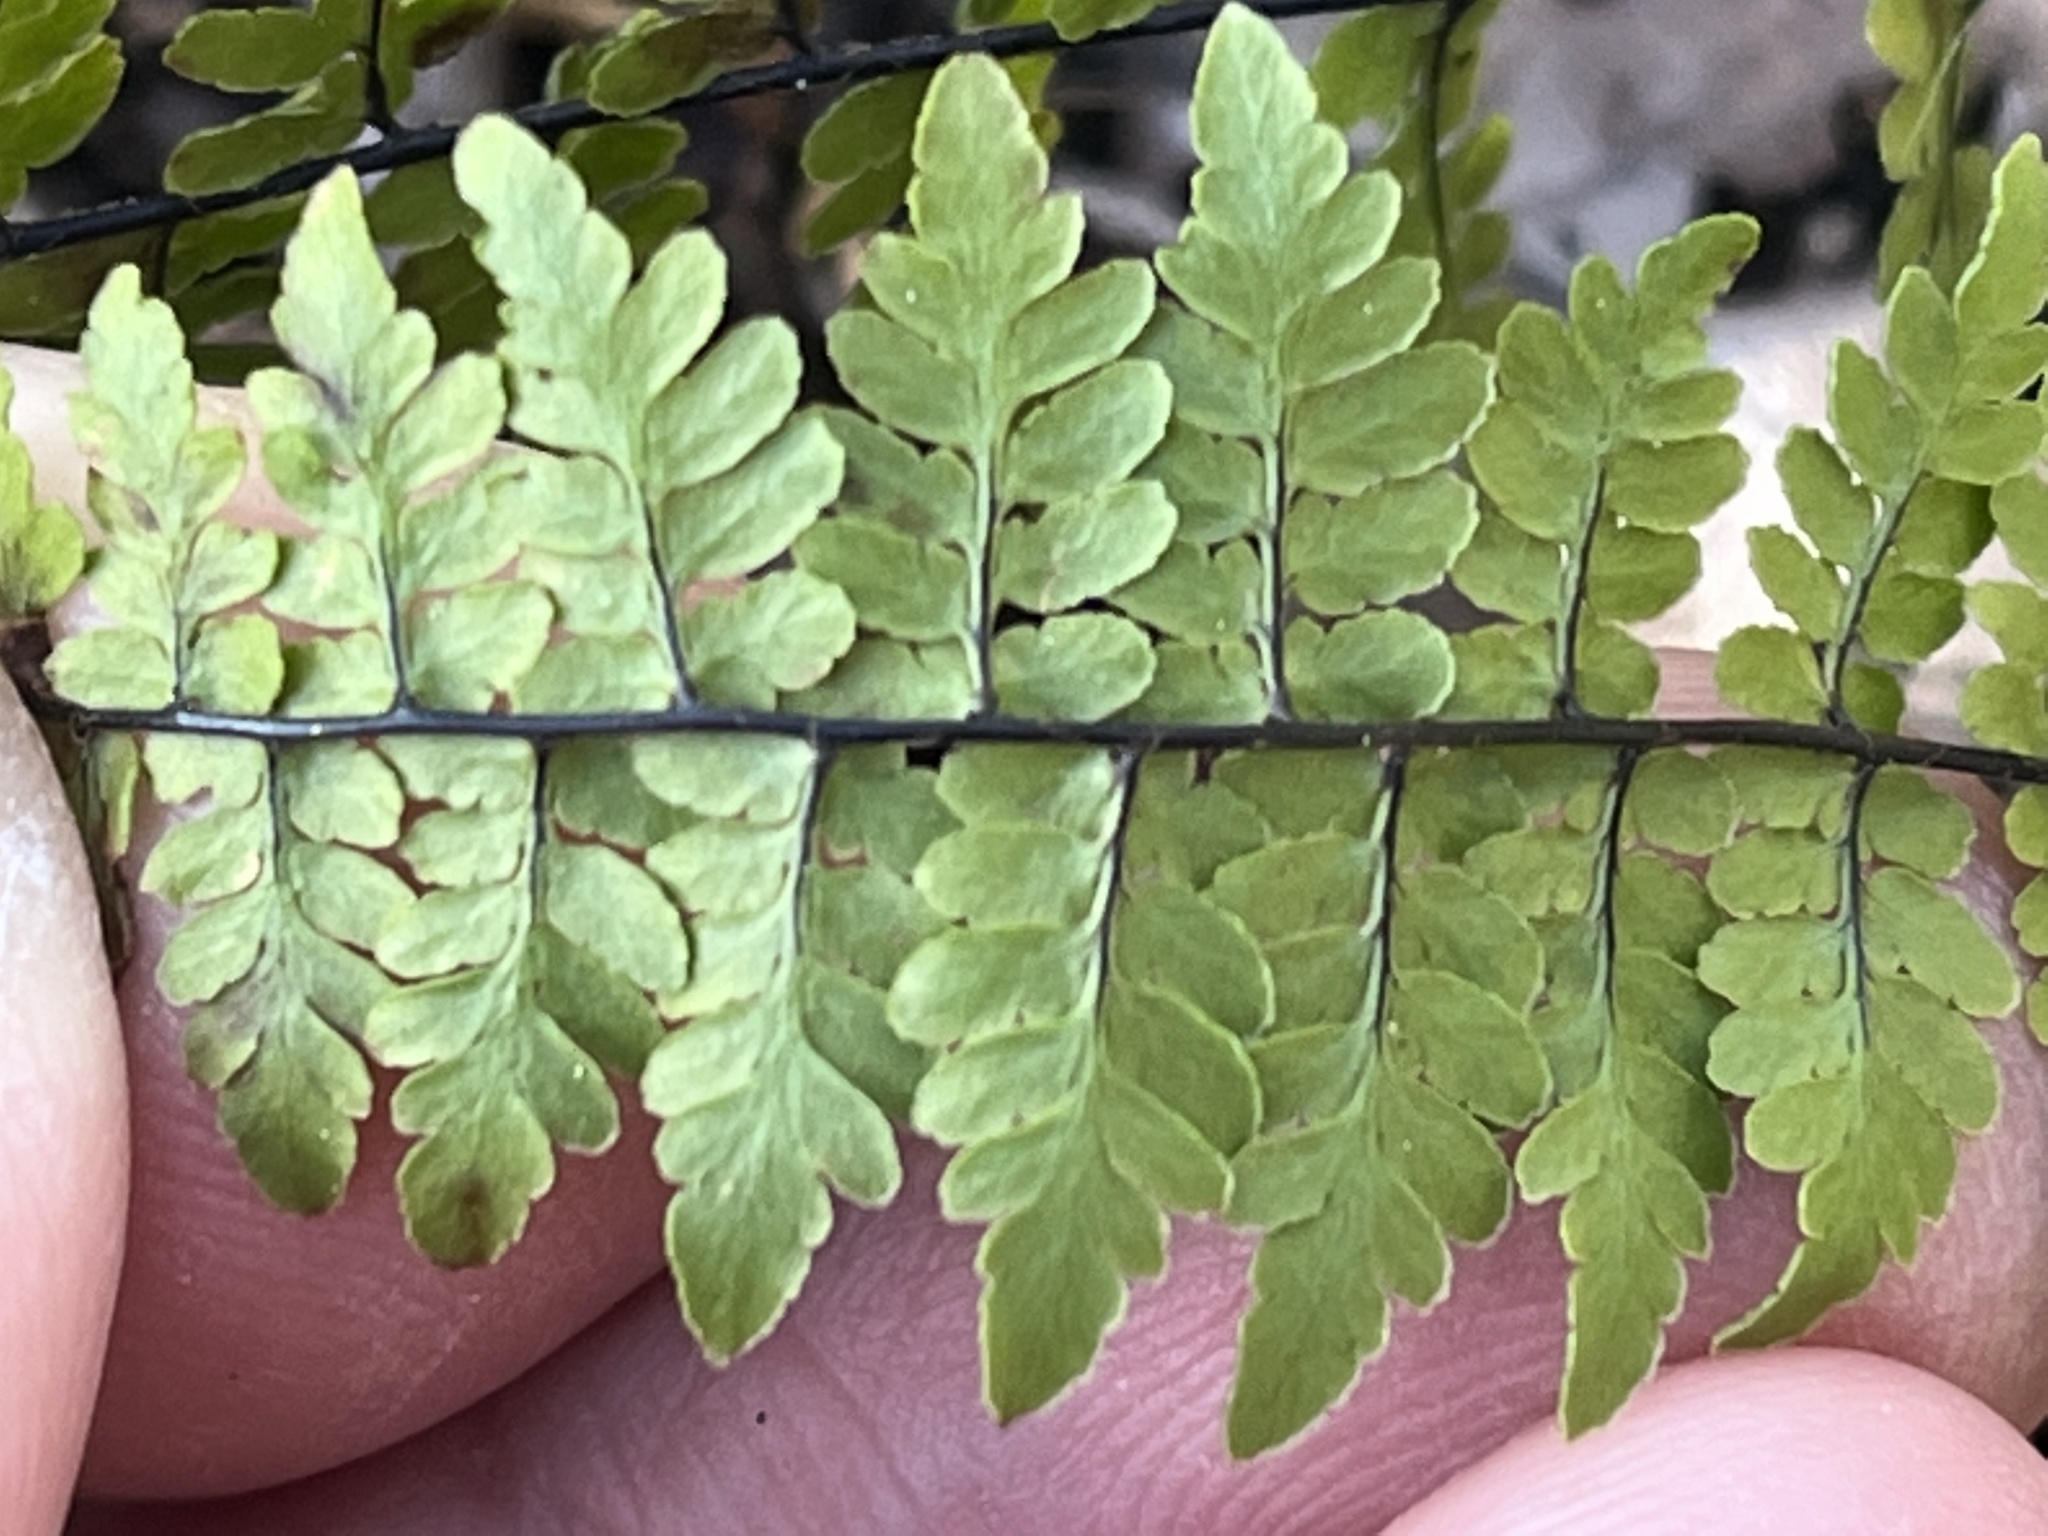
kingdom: Plantae
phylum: Tracheophyta
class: Polypodiopsida
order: Polypodiales
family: Pteridaceae
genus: Myriopteris
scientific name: Myriopteris alabamensis
